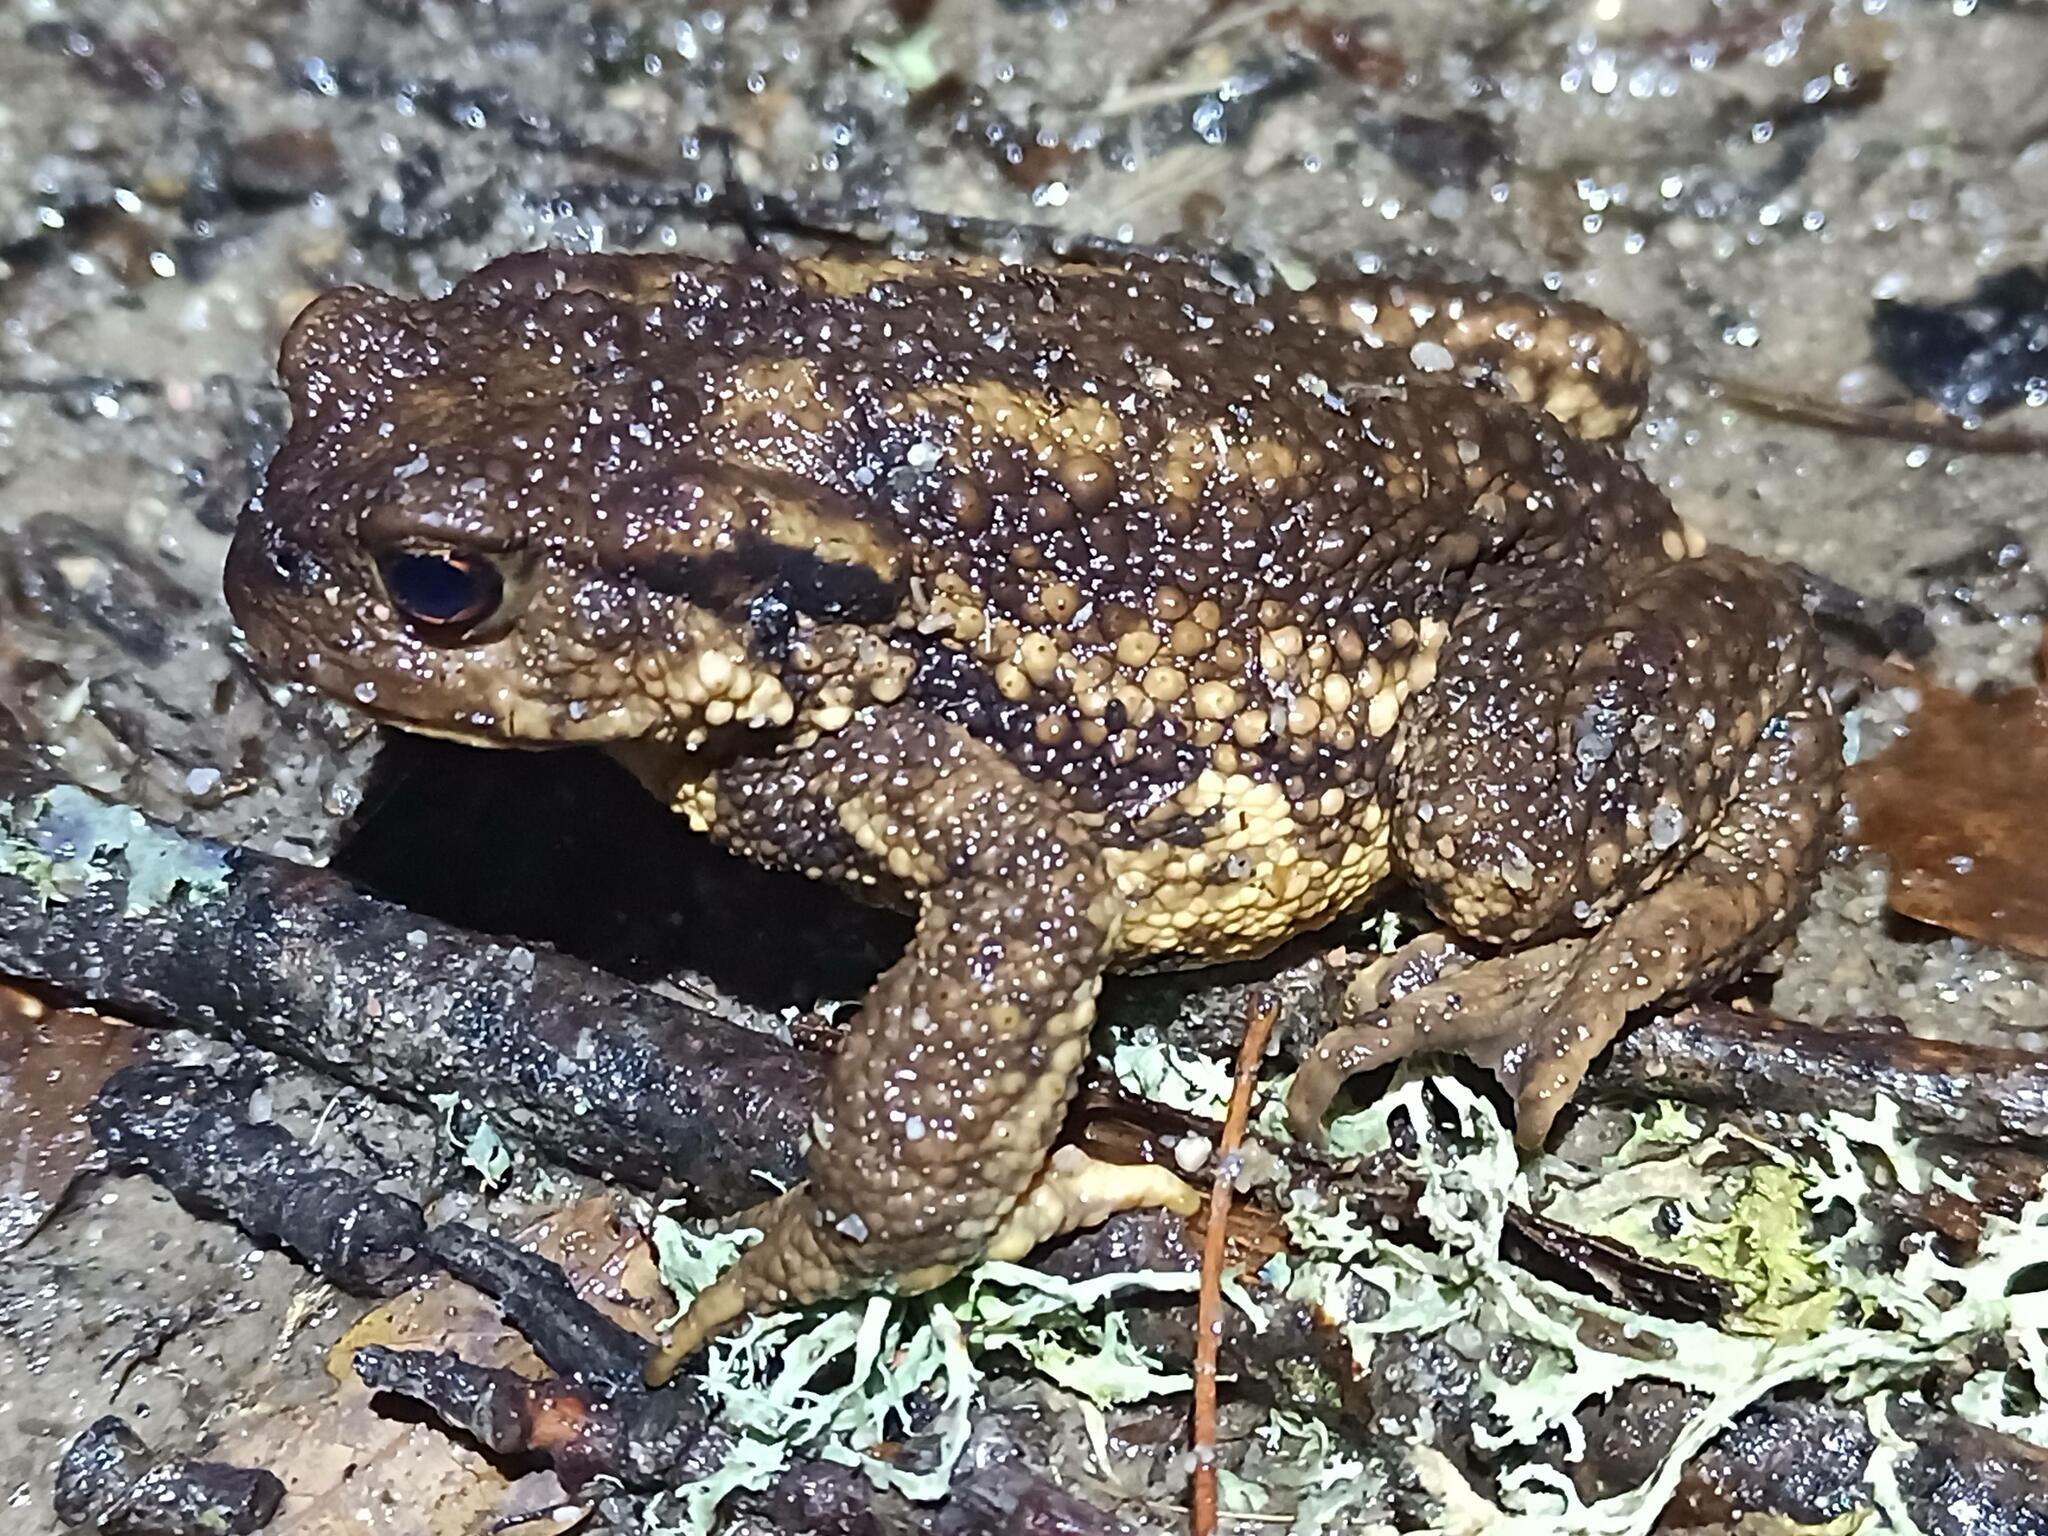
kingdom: Animalia
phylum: Chordata
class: Amphibia
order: Anura
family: Bufonidae
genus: Bufo
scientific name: Bufo spinosus
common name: Western common toad
